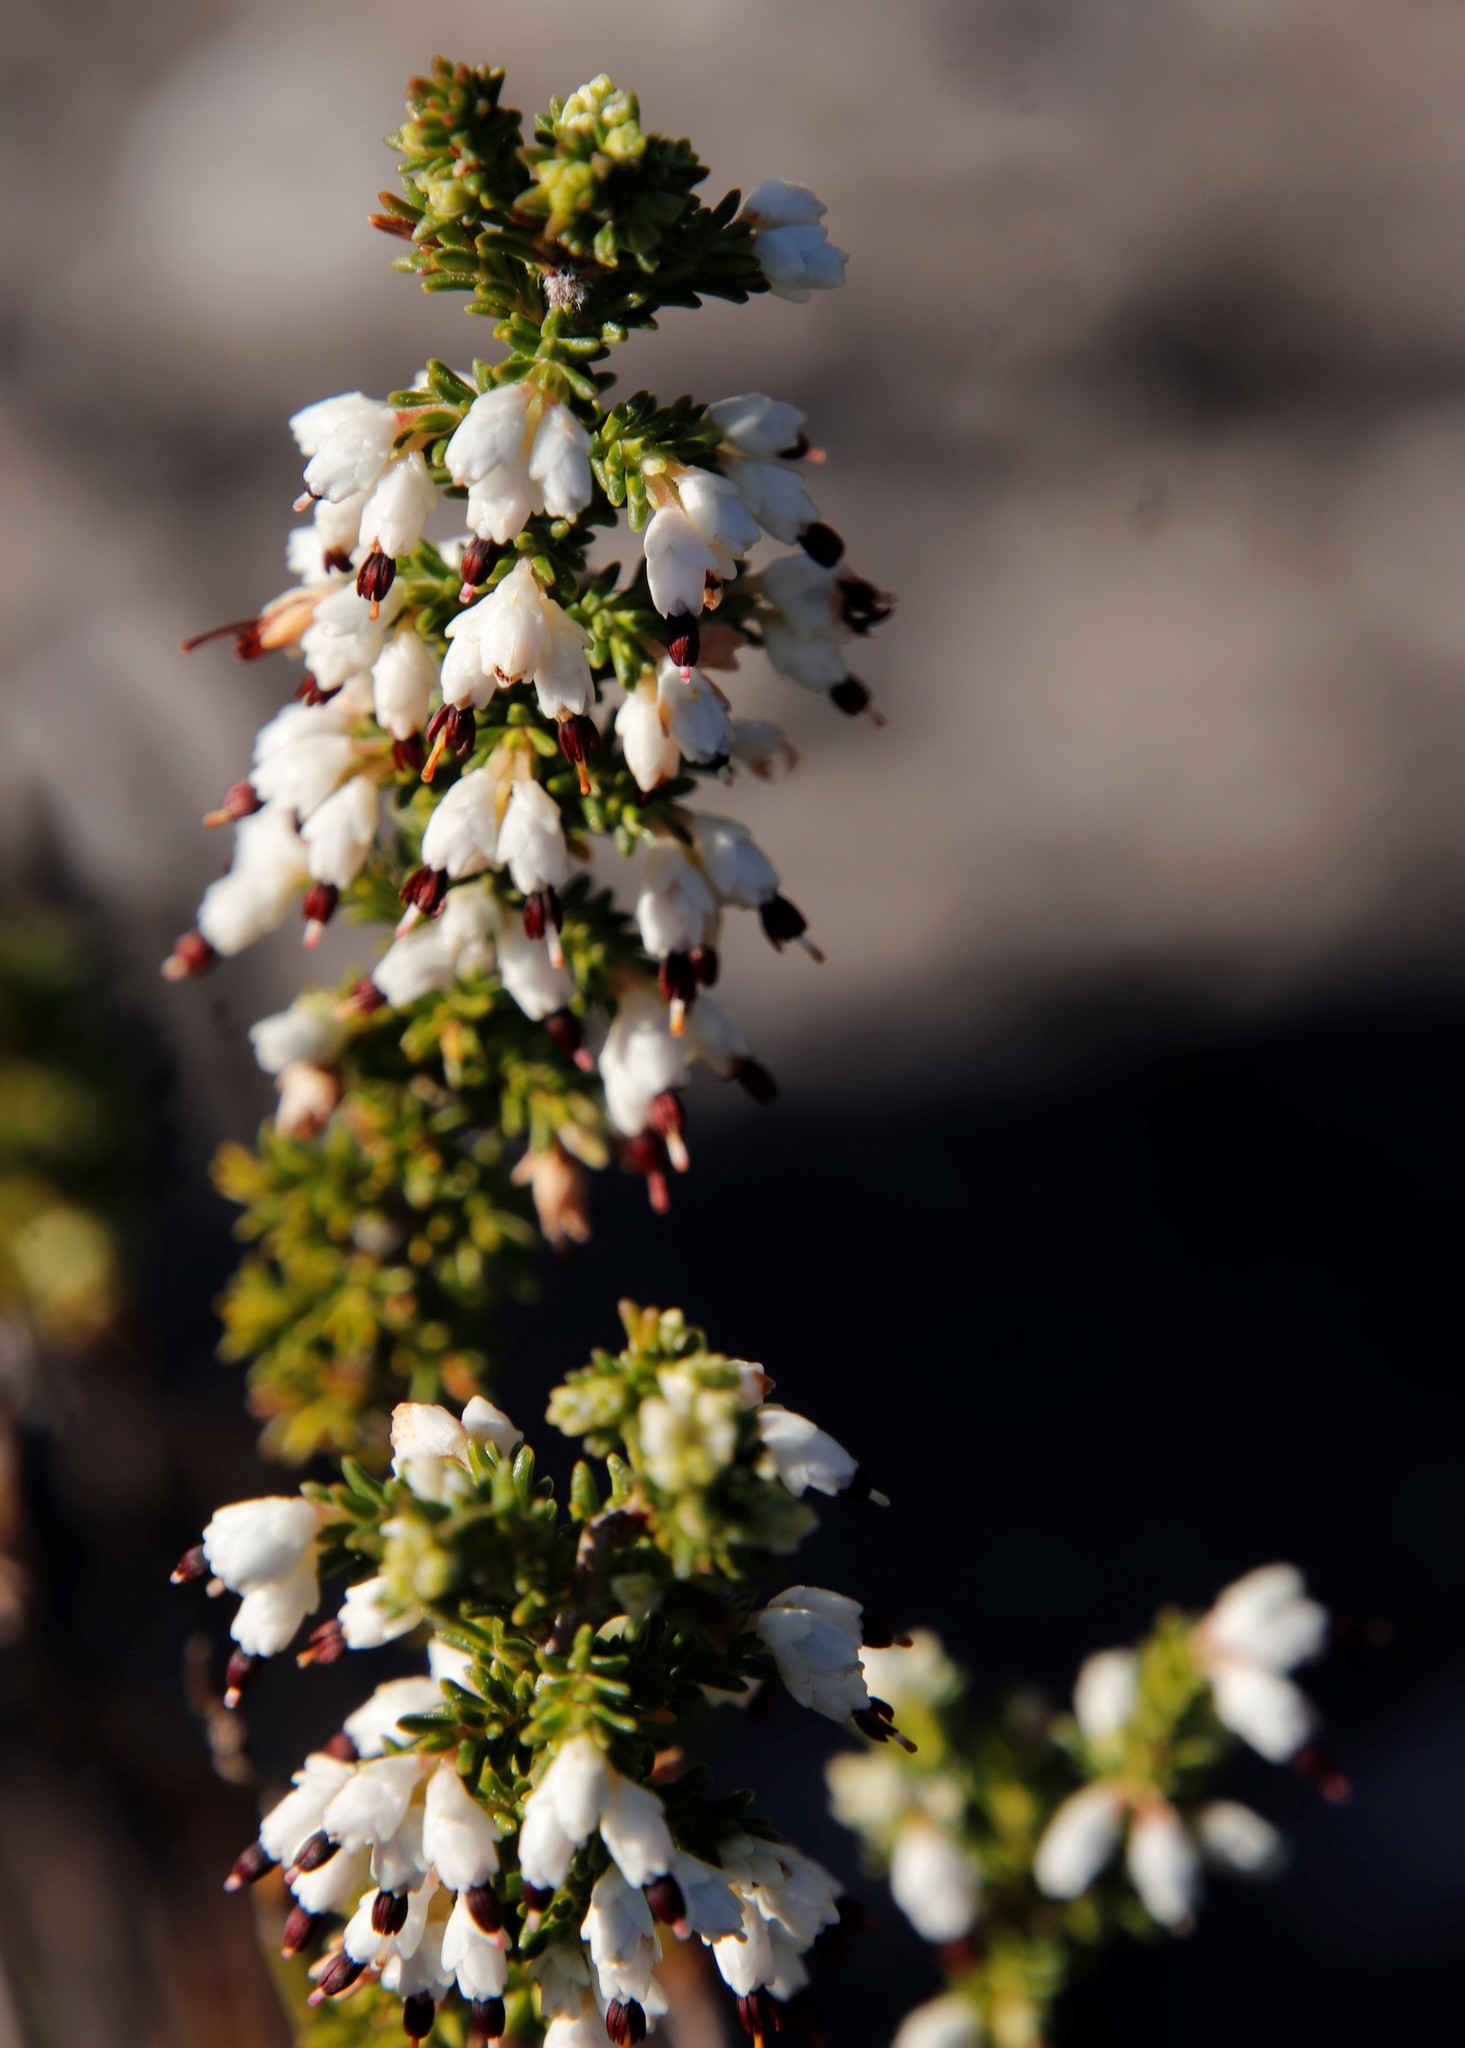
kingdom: Plantae
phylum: Tracheophyta
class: Magnoliopsida
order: Ericales
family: Ericaceae
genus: Erica
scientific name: Erica imbricata
